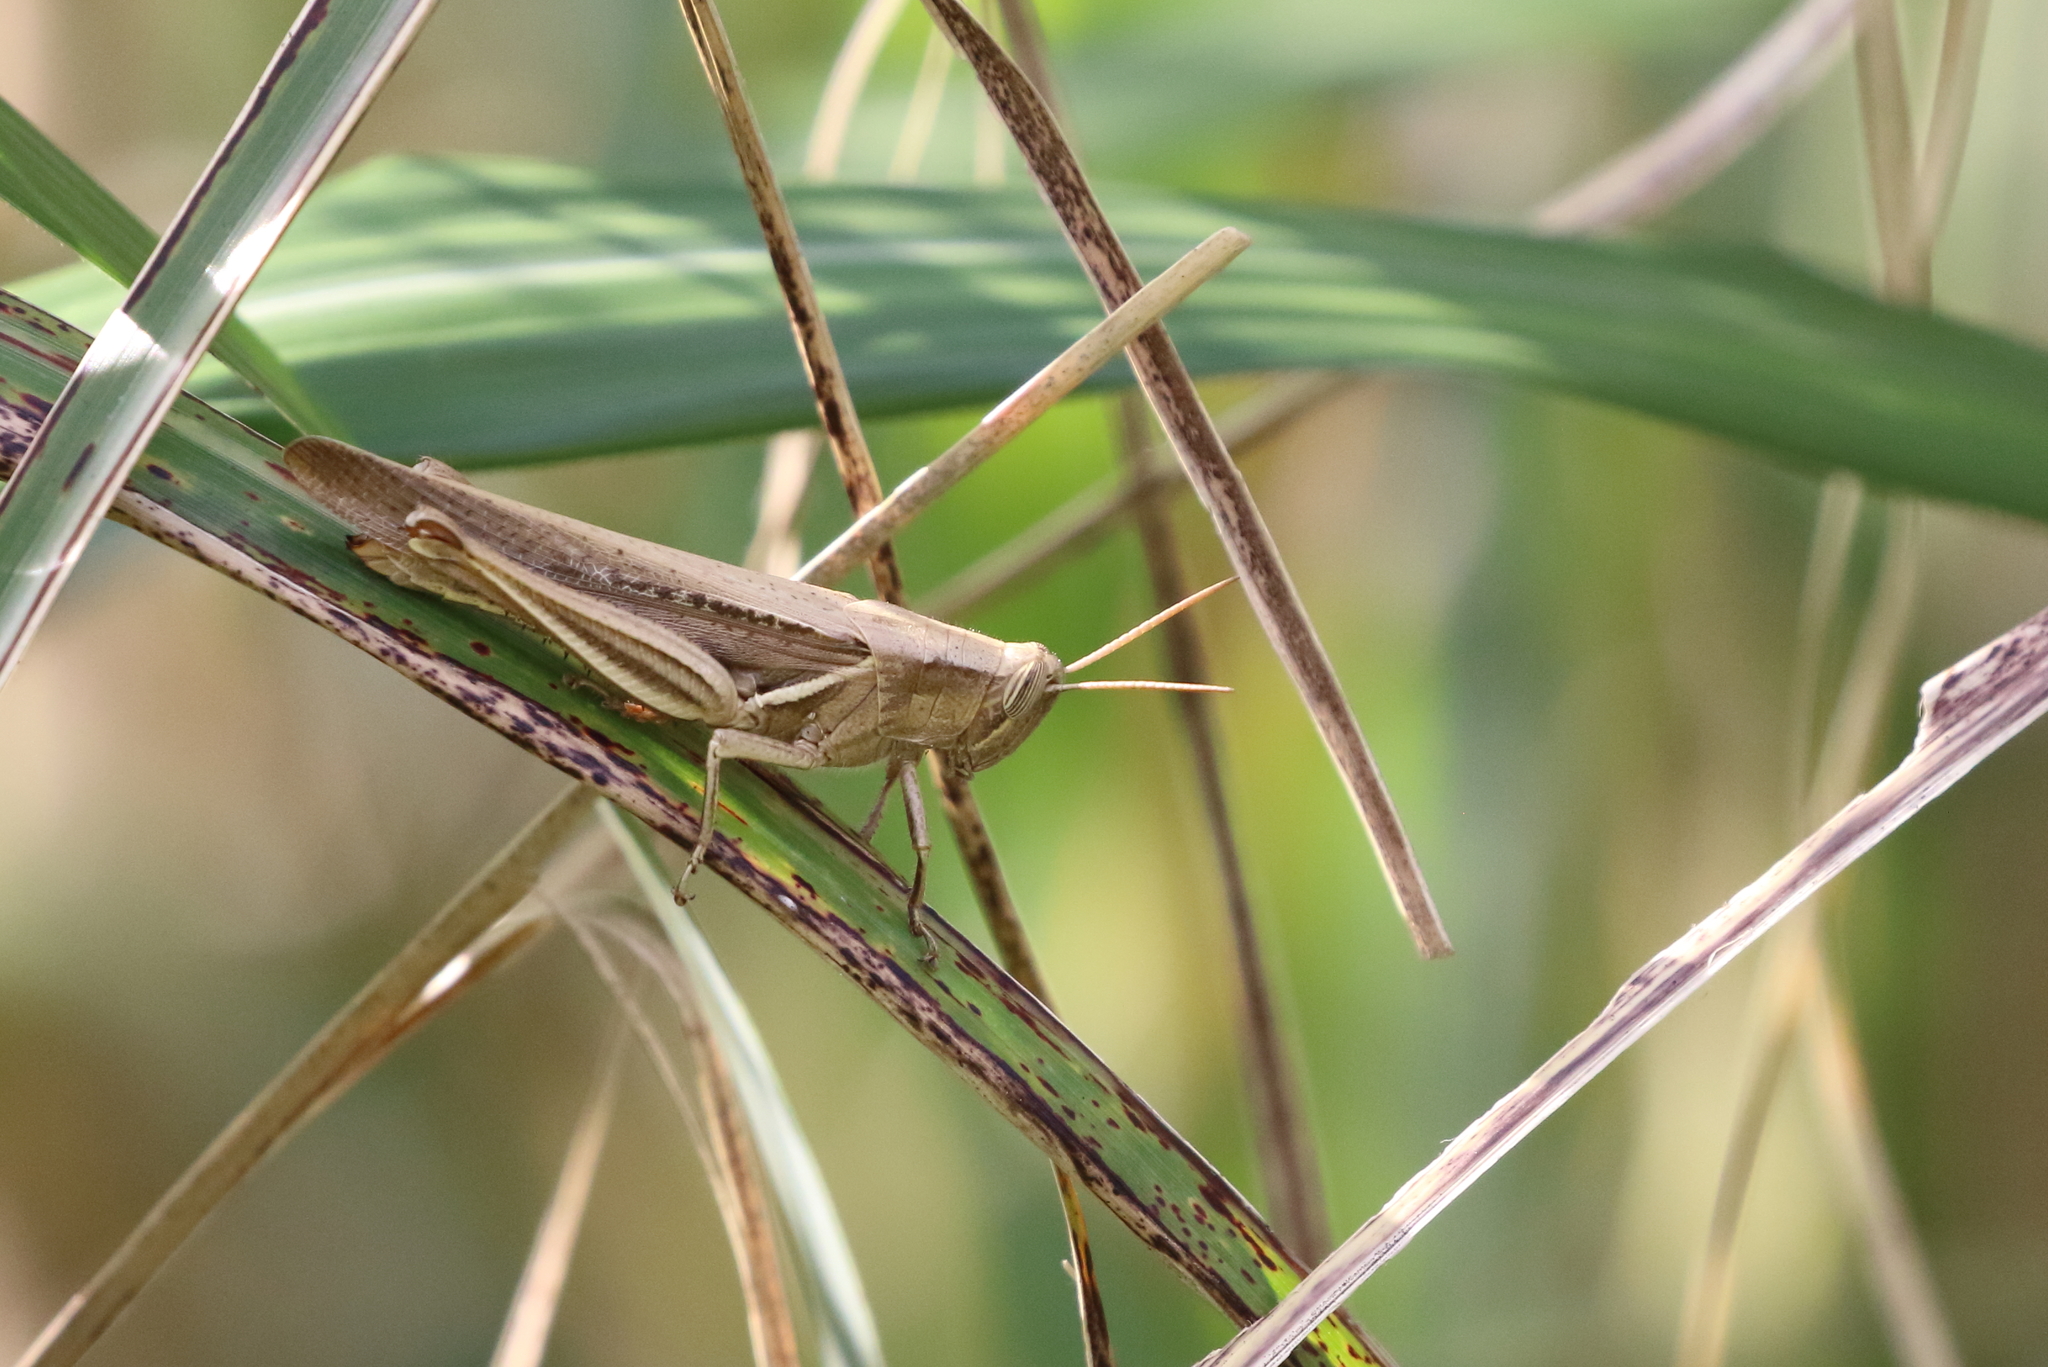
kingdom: Animalia
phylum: Arthropoda
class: Insecta
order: Orthoptera
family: Acrididae
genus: Stenocatantops
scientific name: Stenocatantops mistshenkoi
